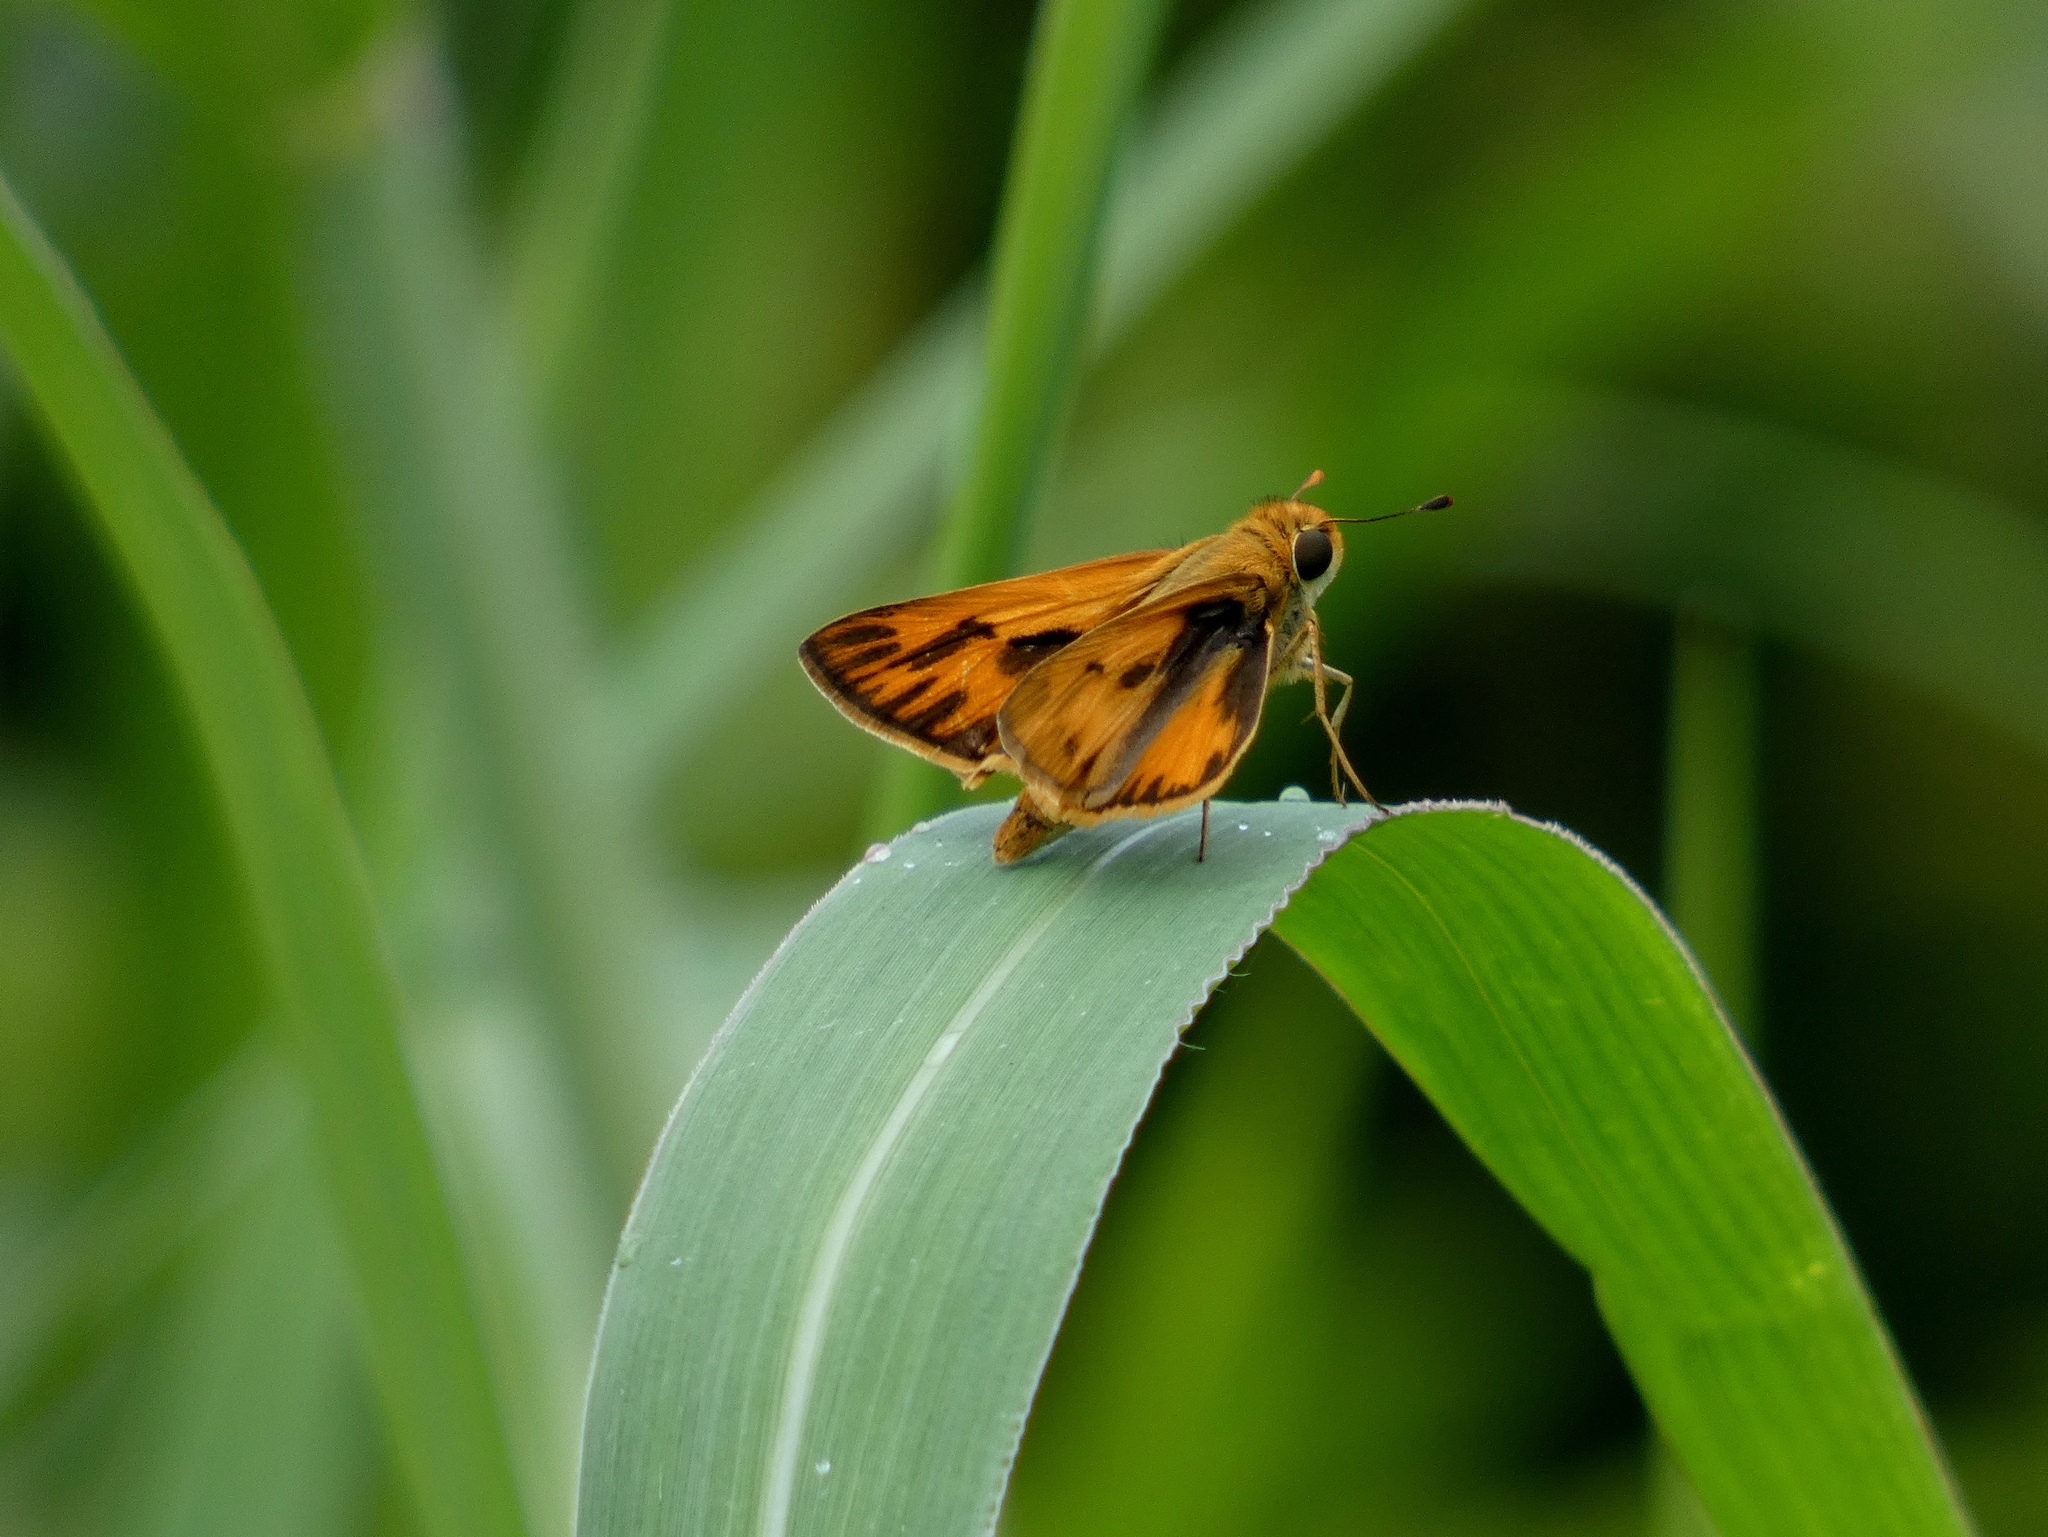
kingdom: Animalia
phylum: Arthropoda
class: Insecta
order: Lepidoptera
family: Hesperiidae
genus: Hylephila
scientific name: Hylephila phyleus
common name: Fiery skipper
